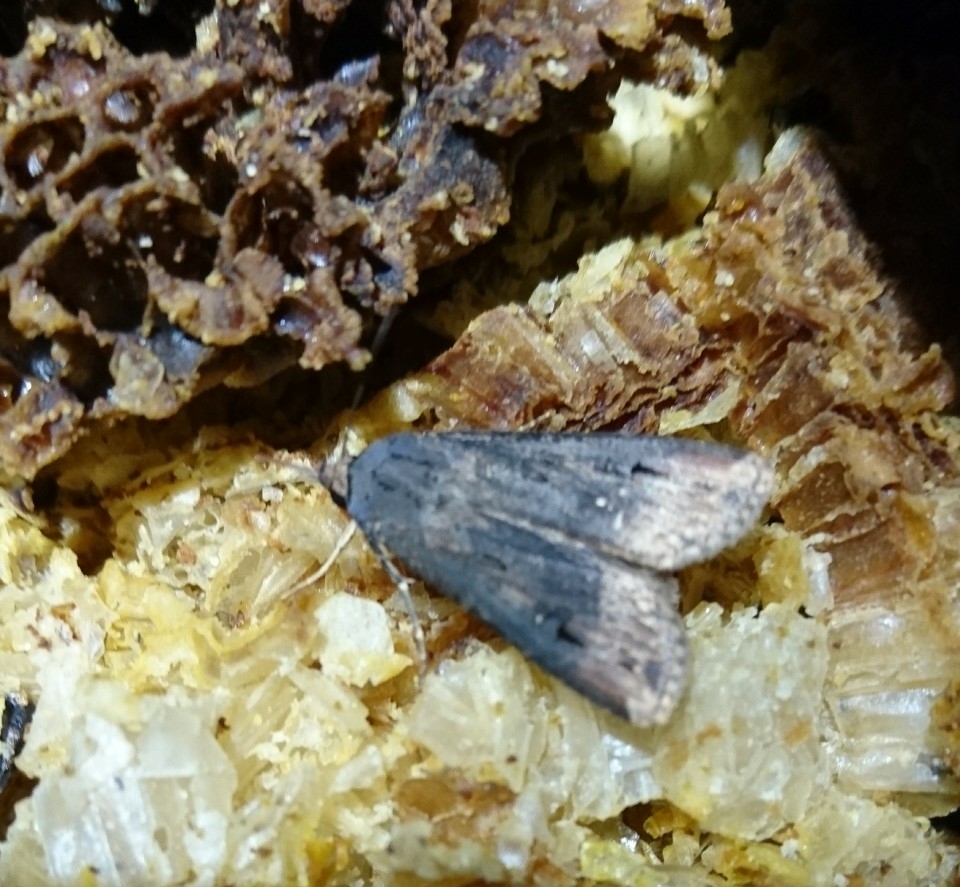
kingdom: Animalia
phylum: Arthropoda
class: Insecta
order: Lepidoptera
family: Noctuidae
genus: Agrotis
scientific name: Agrotis ipsilon
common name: Dark sword-grass
